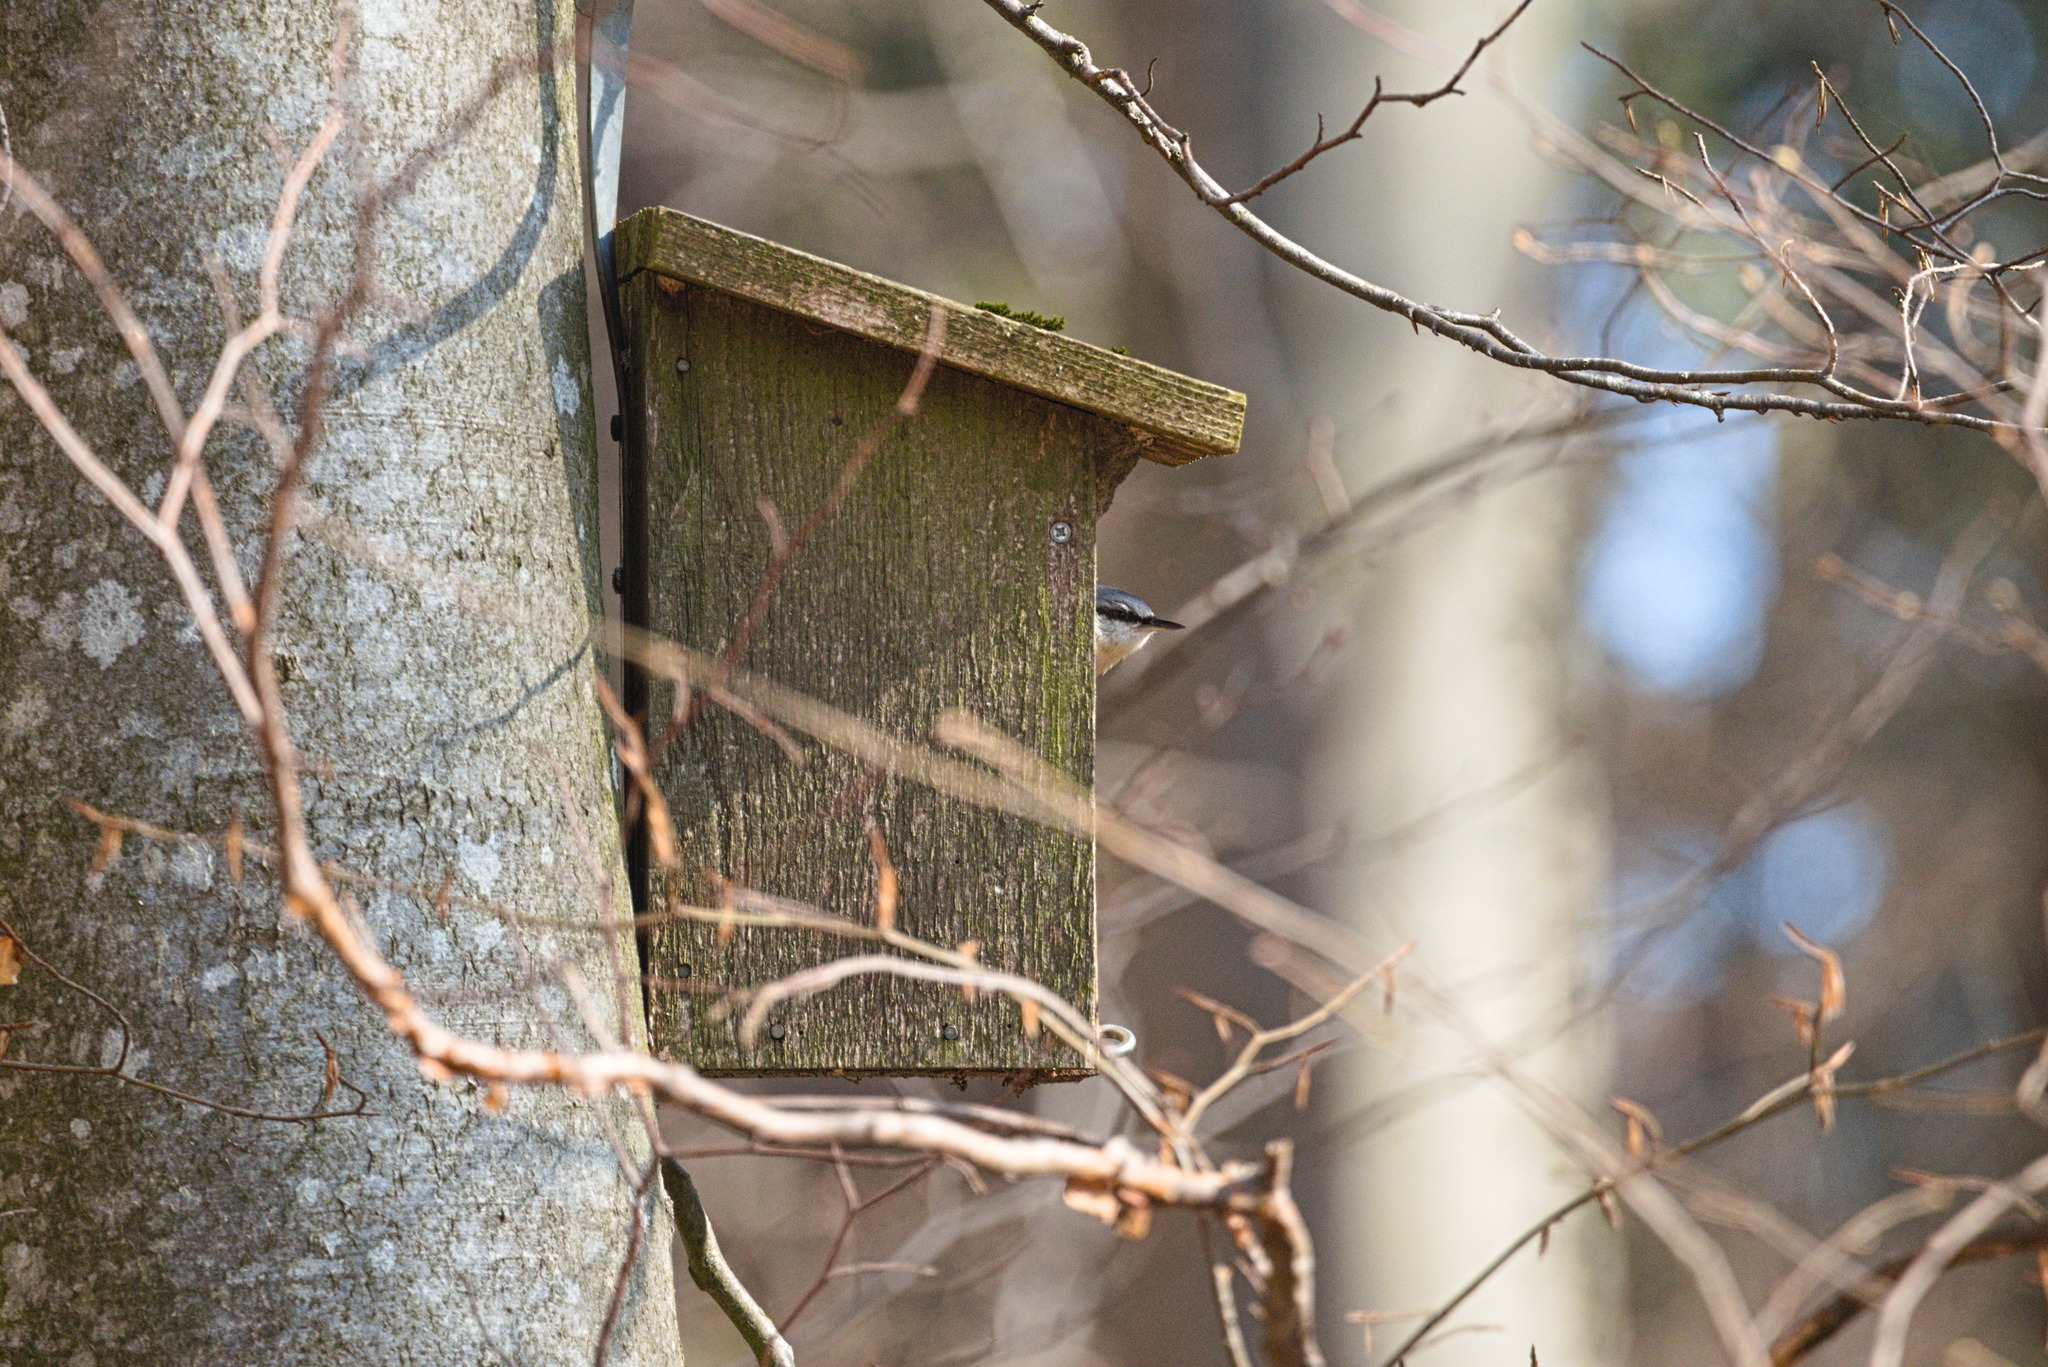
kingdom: Animalia
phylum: Chordata
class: Aves
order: Passeriformes
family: Sittidae
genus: Sitta
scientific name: Sitta europaea
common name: Eurasian nuthatch
